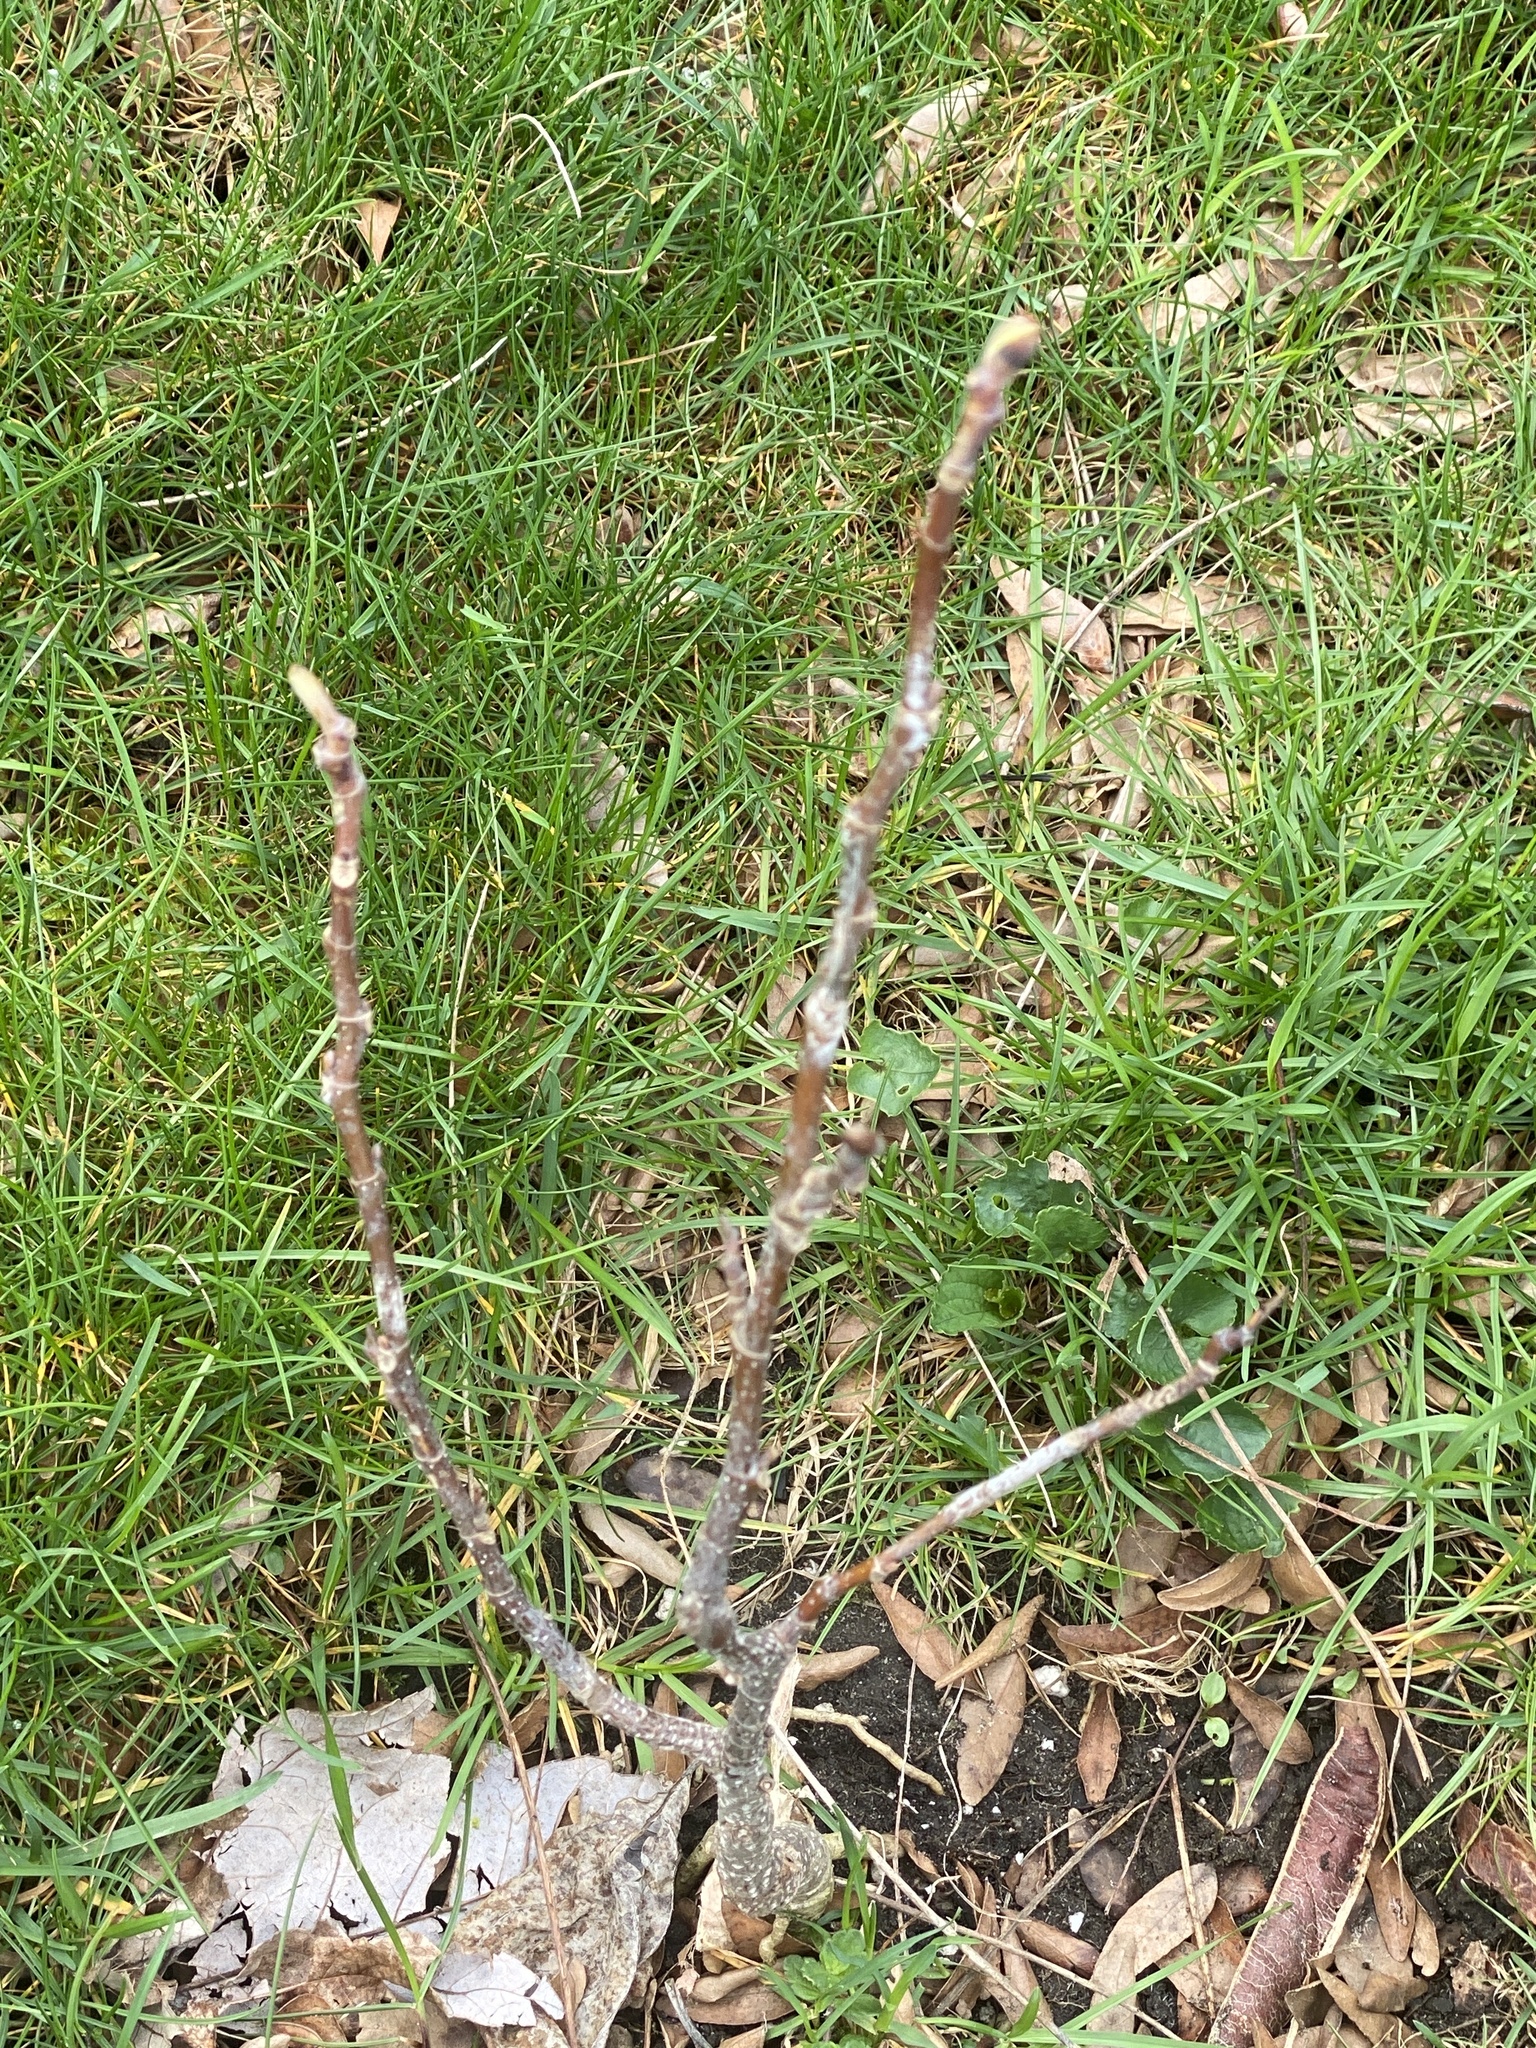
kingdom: Plantae
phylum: Tracheophyta
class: Magnoliopsida
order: Magnoliales
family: Magnoliaceae
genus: Liriodendron
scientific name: Liriodendron tulipifera
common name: Tulip tree
